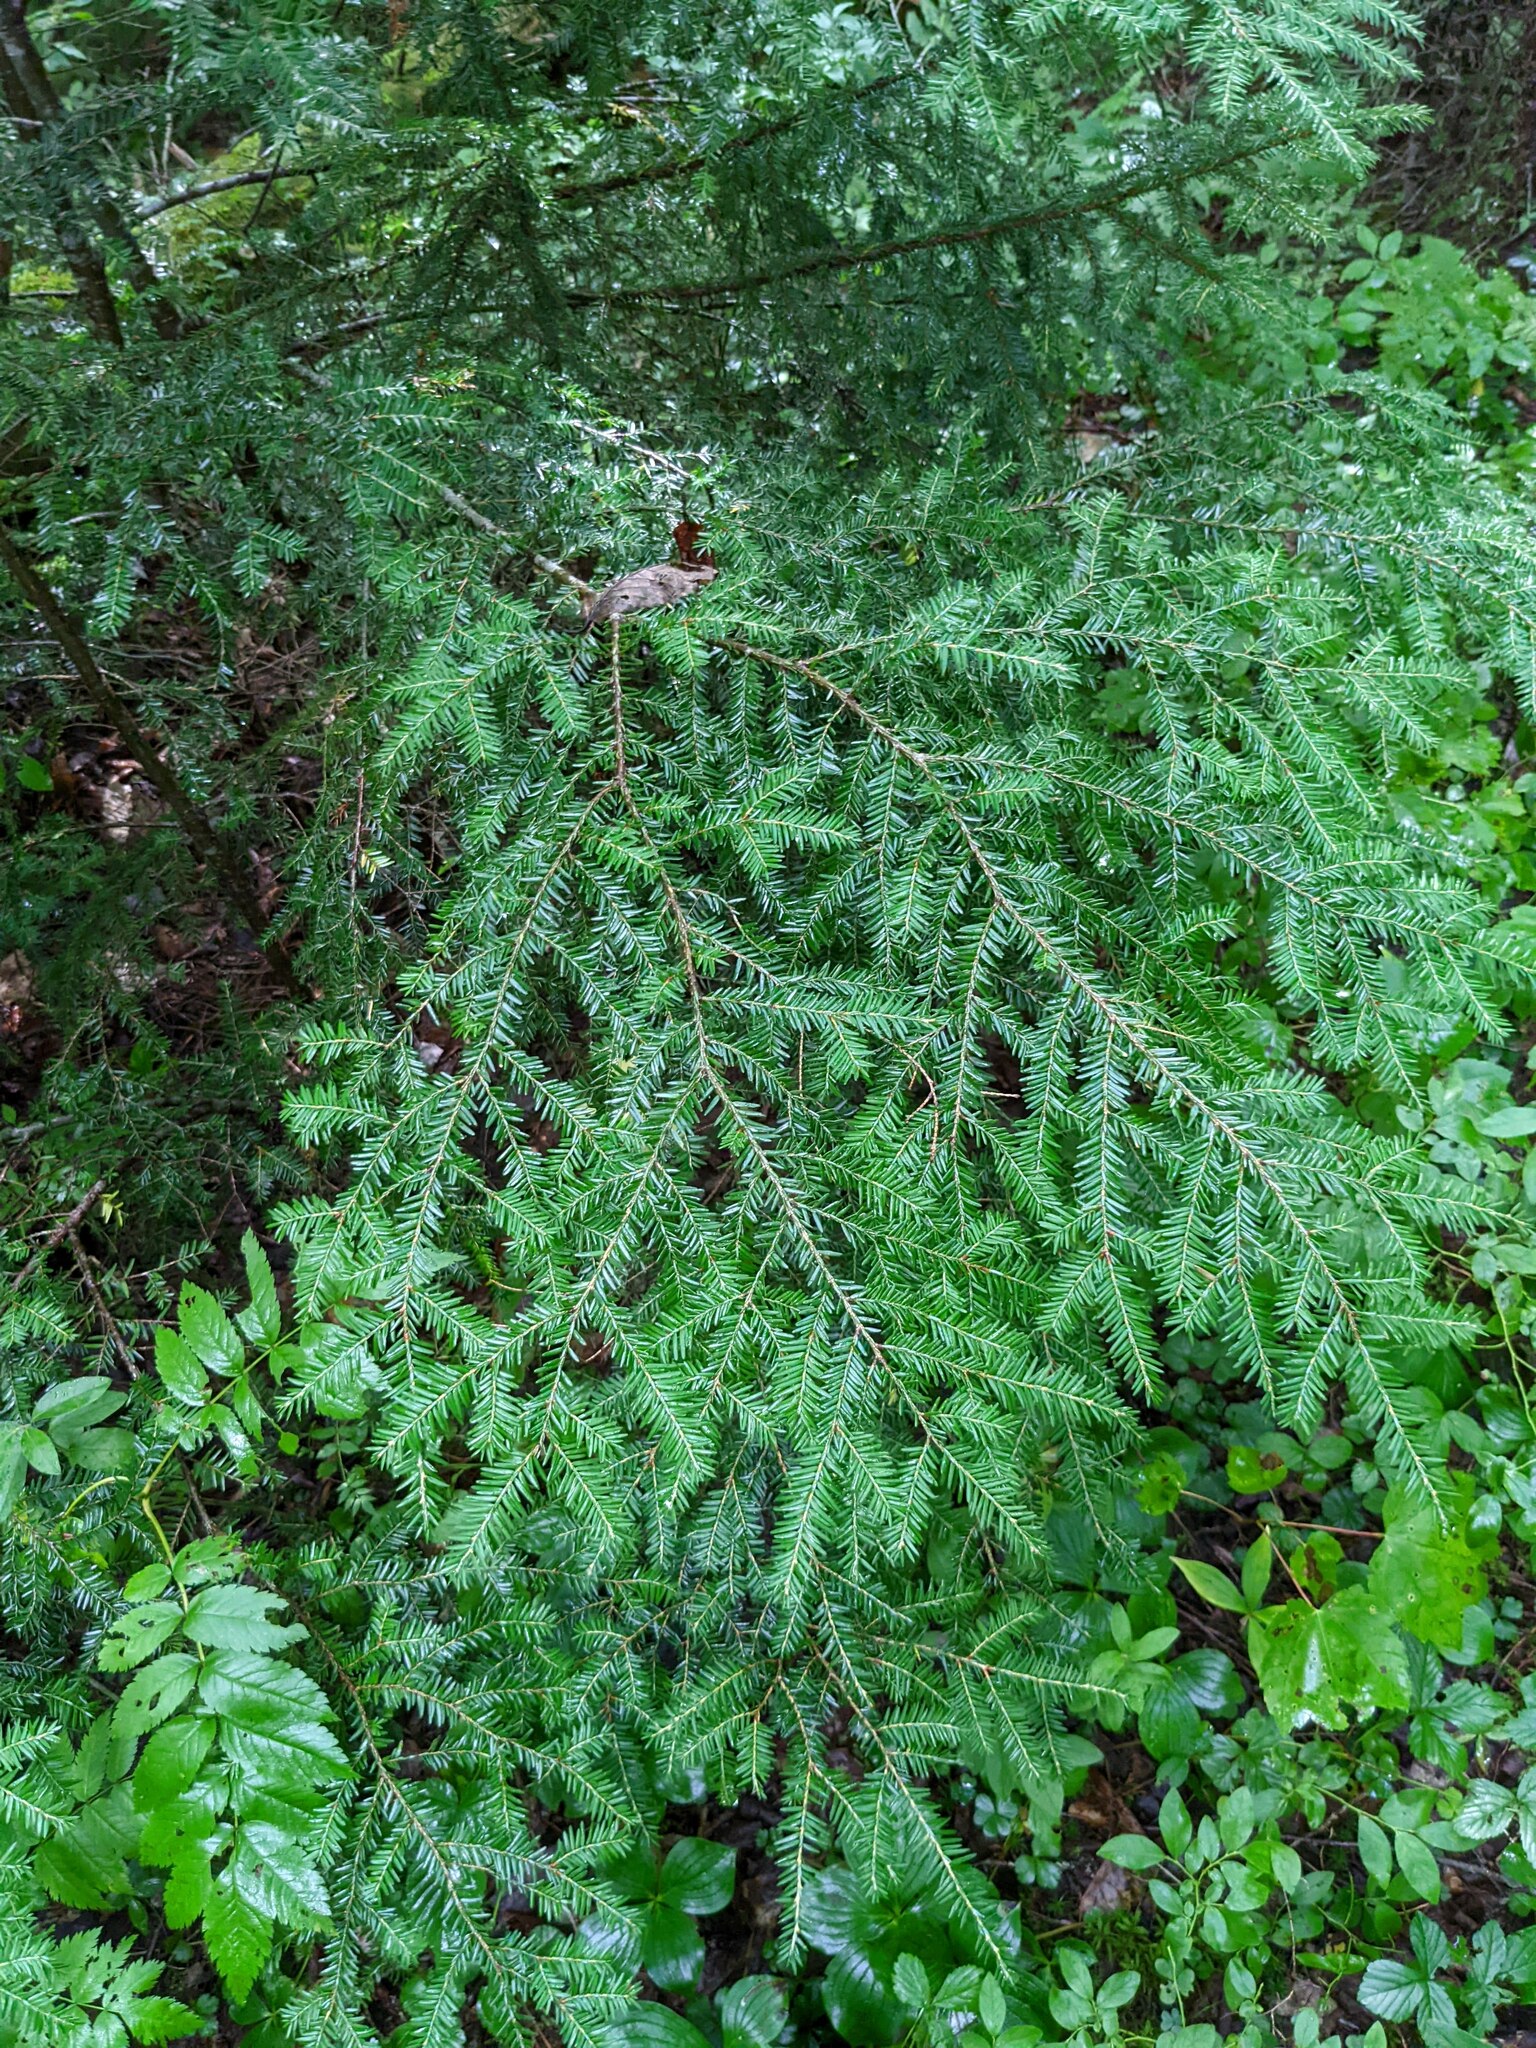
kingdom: Plantae
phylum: Tracheophyta
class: Pinopsida
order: Pinales
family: Pinaceae
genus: Tsuga
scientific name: Tsuga canadensis
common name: Eastern hemlock
